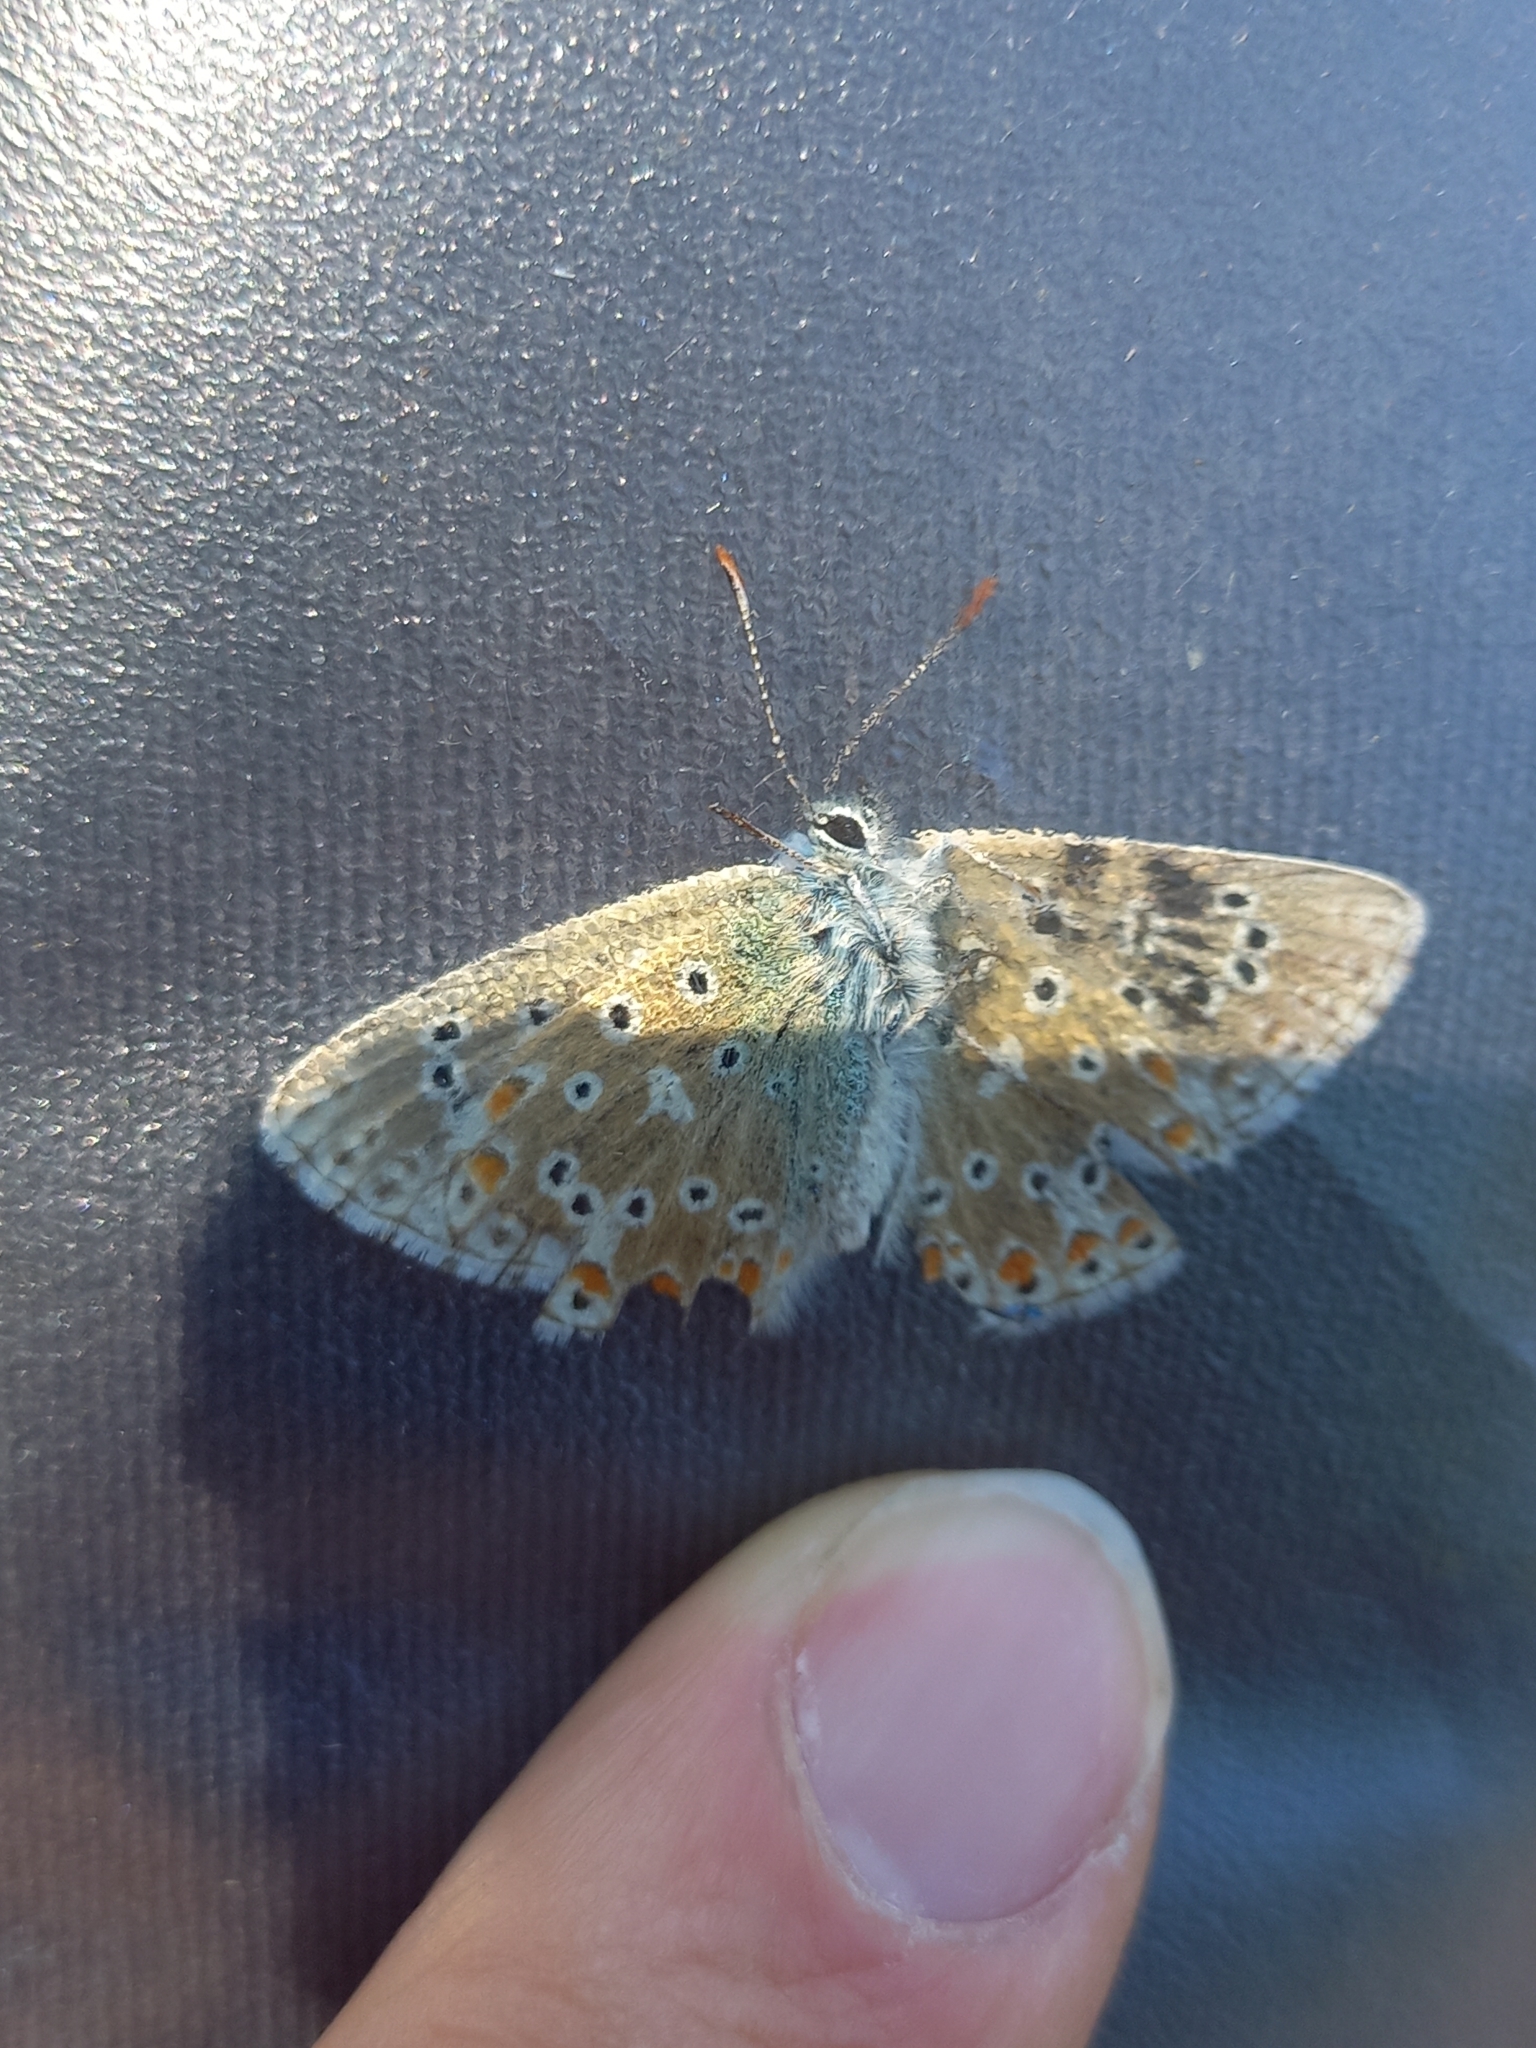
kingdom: Animalia
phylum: Arthropoda
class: Insecta
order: Lepidoptera
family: Lycaenidae
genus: Lysandra
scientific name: Lysandra bellargus
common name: Adonis blue
